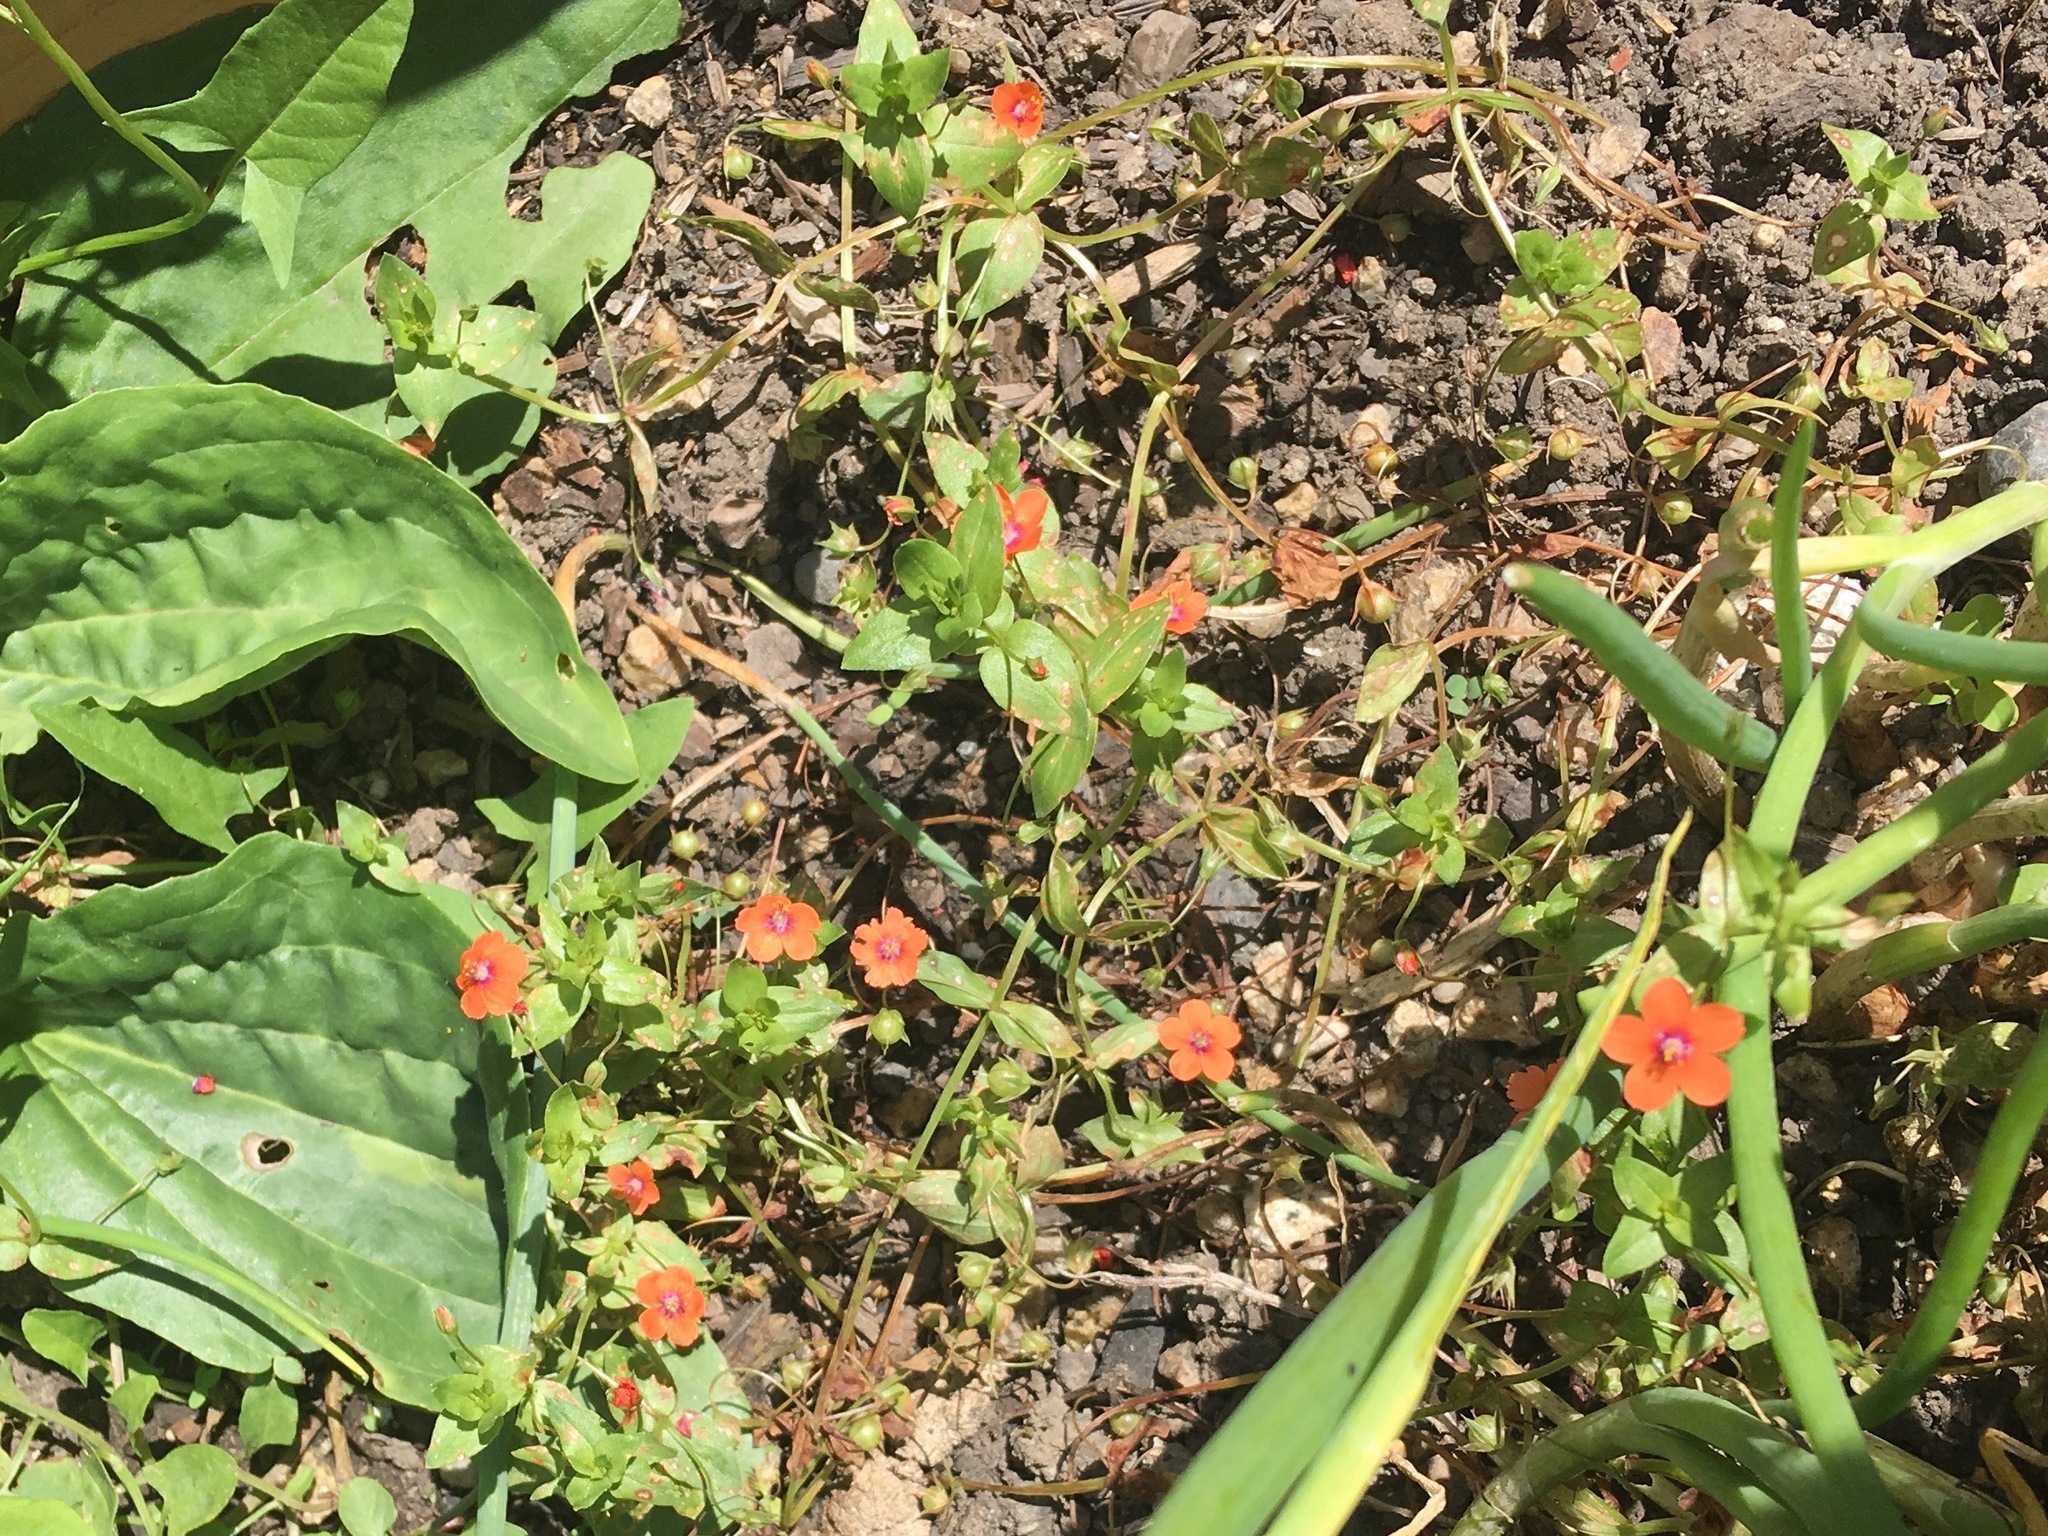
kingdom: Plantae
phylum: Tracheophyta
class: Magnoliopsida
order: Ericales
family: Primulaceae
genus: Lysimachia
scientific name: Lysimachia arvensis
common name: Scarlet pimpernel
